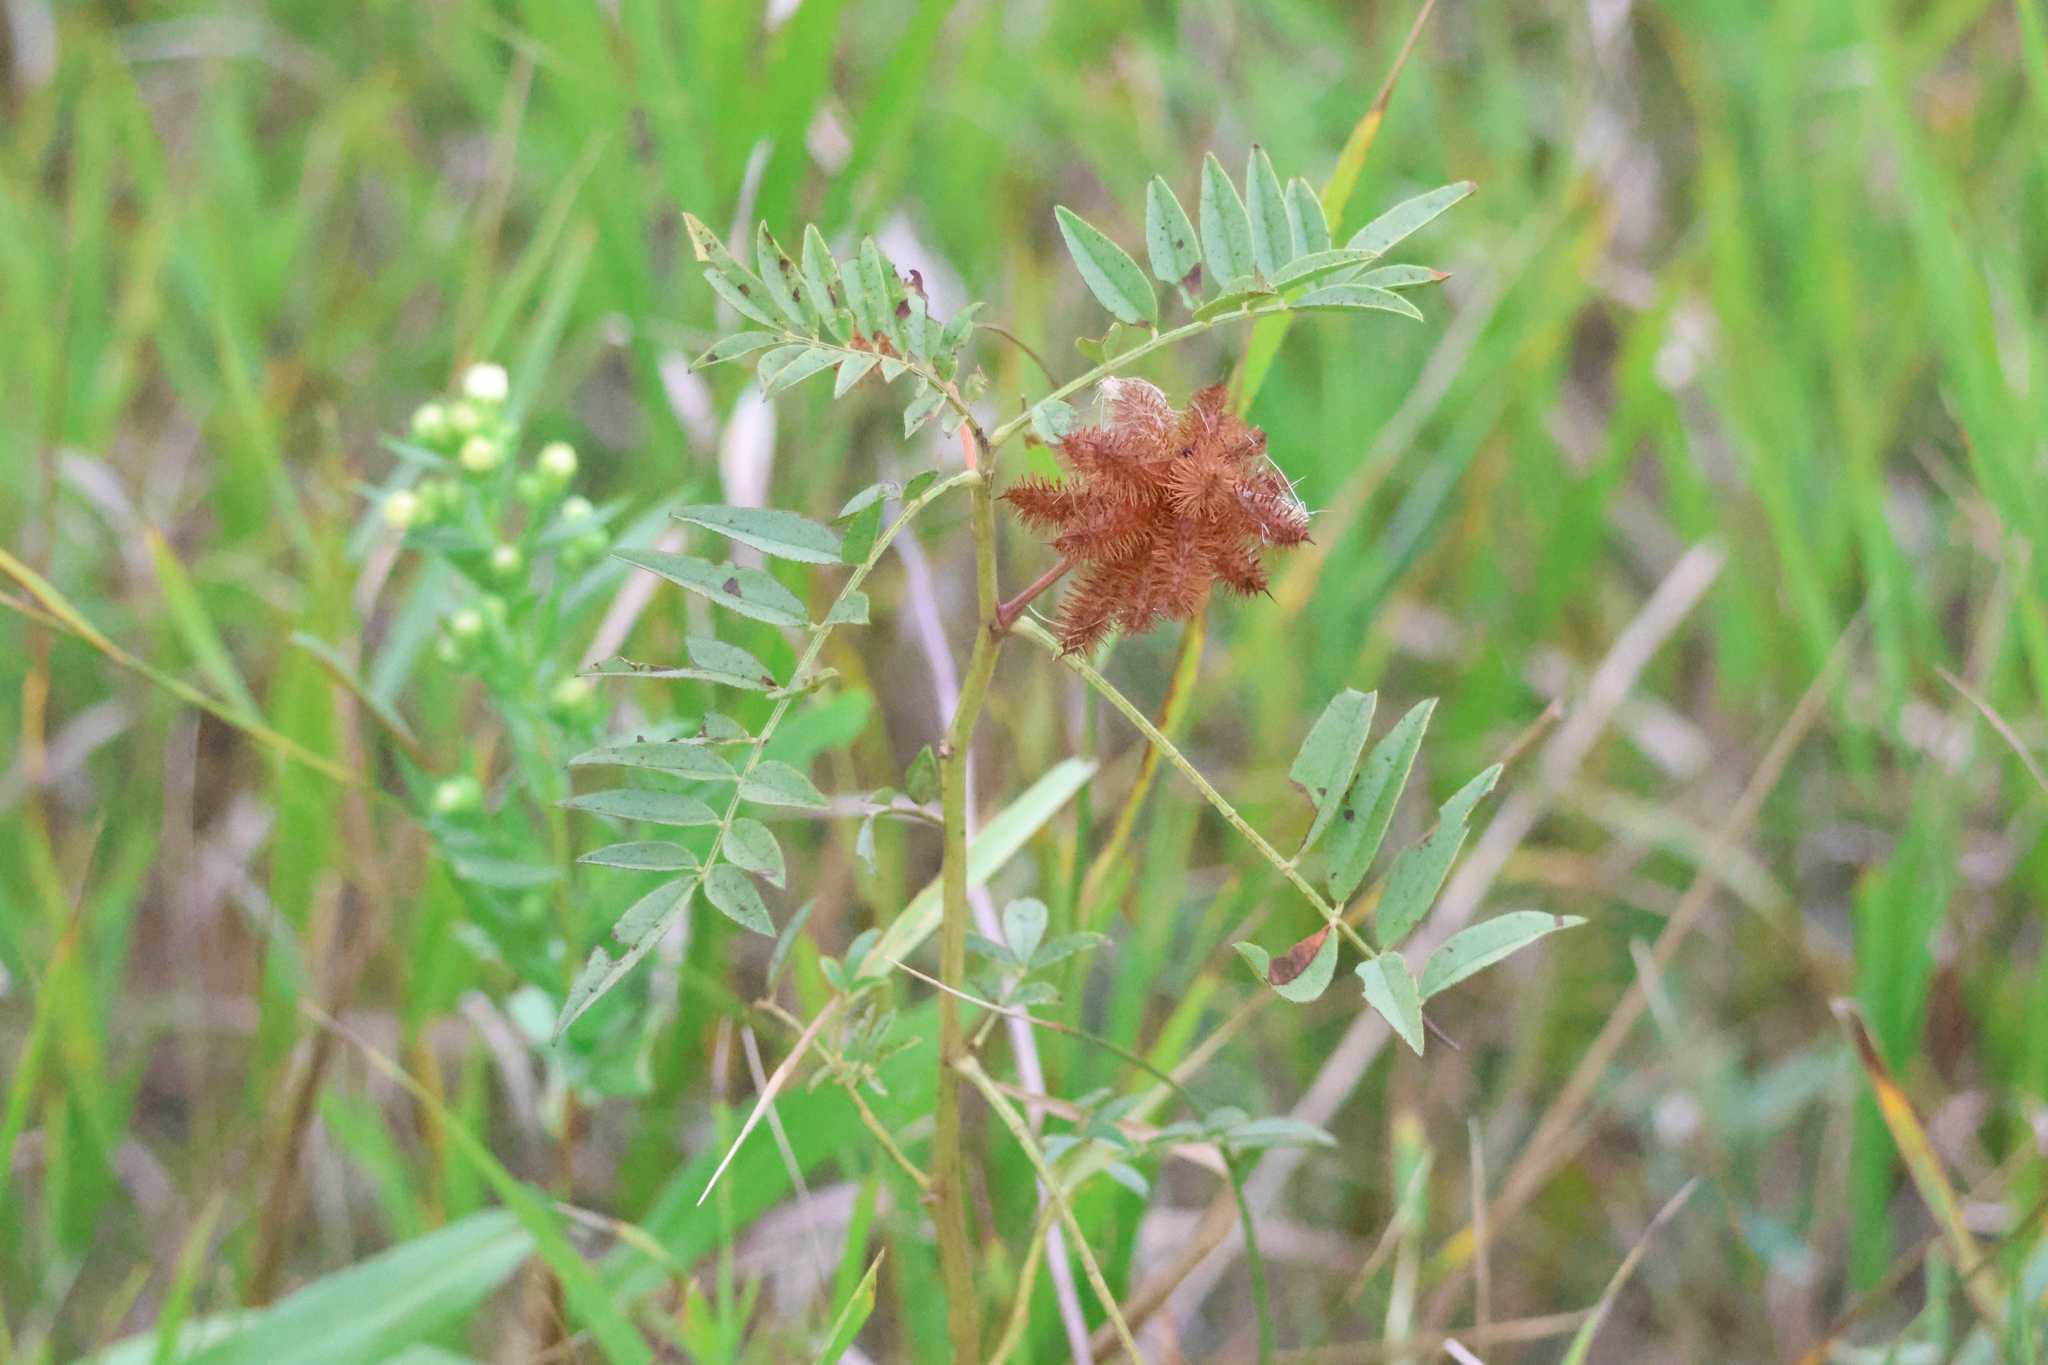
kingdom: Plantae
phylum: Tracheophyta
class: Magnoliopsida
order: Fabales
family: Fabaceae
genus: Glycyrrhiza
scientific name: Glycyrrhiza lepidota
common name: American liquorice
